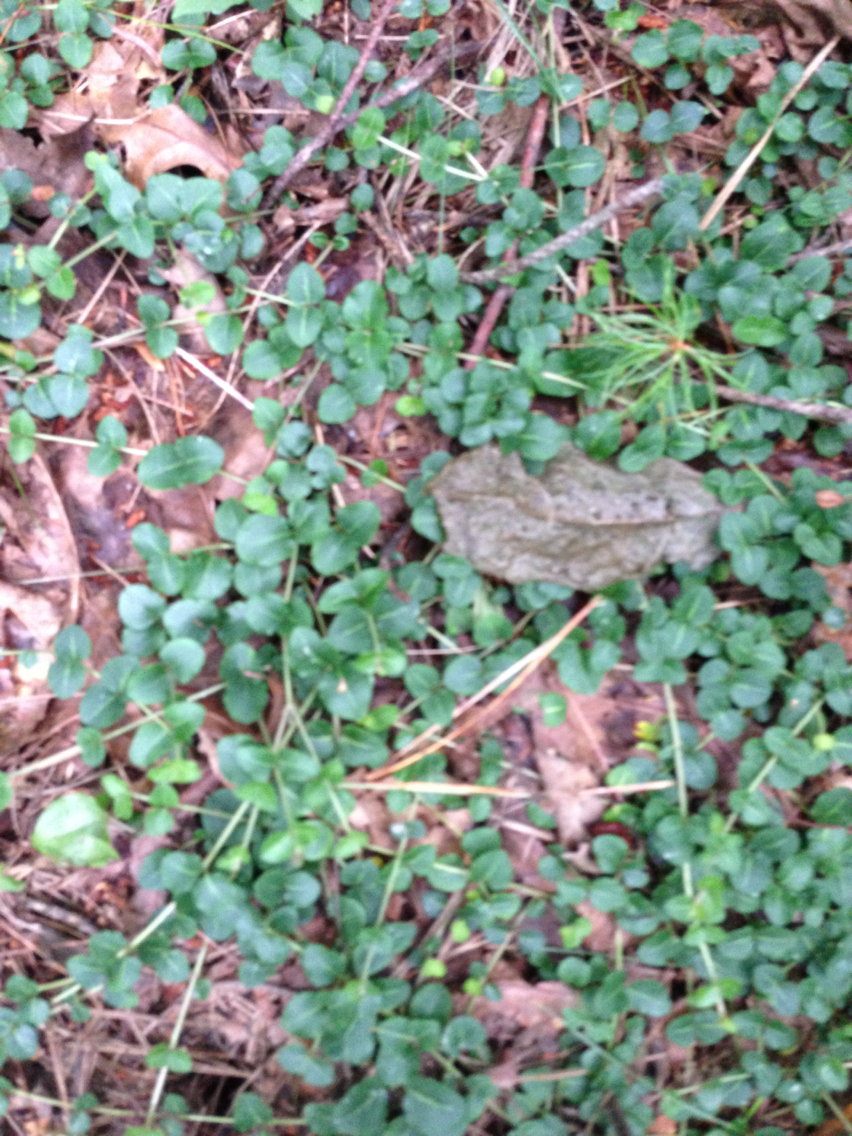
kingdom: Plantae
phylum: Tracheophyta
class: Magnoliopsida
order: Gentianales
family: Rubiaceae
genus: Mitchella
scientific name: Mitchella repens
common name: Partridge-berry
